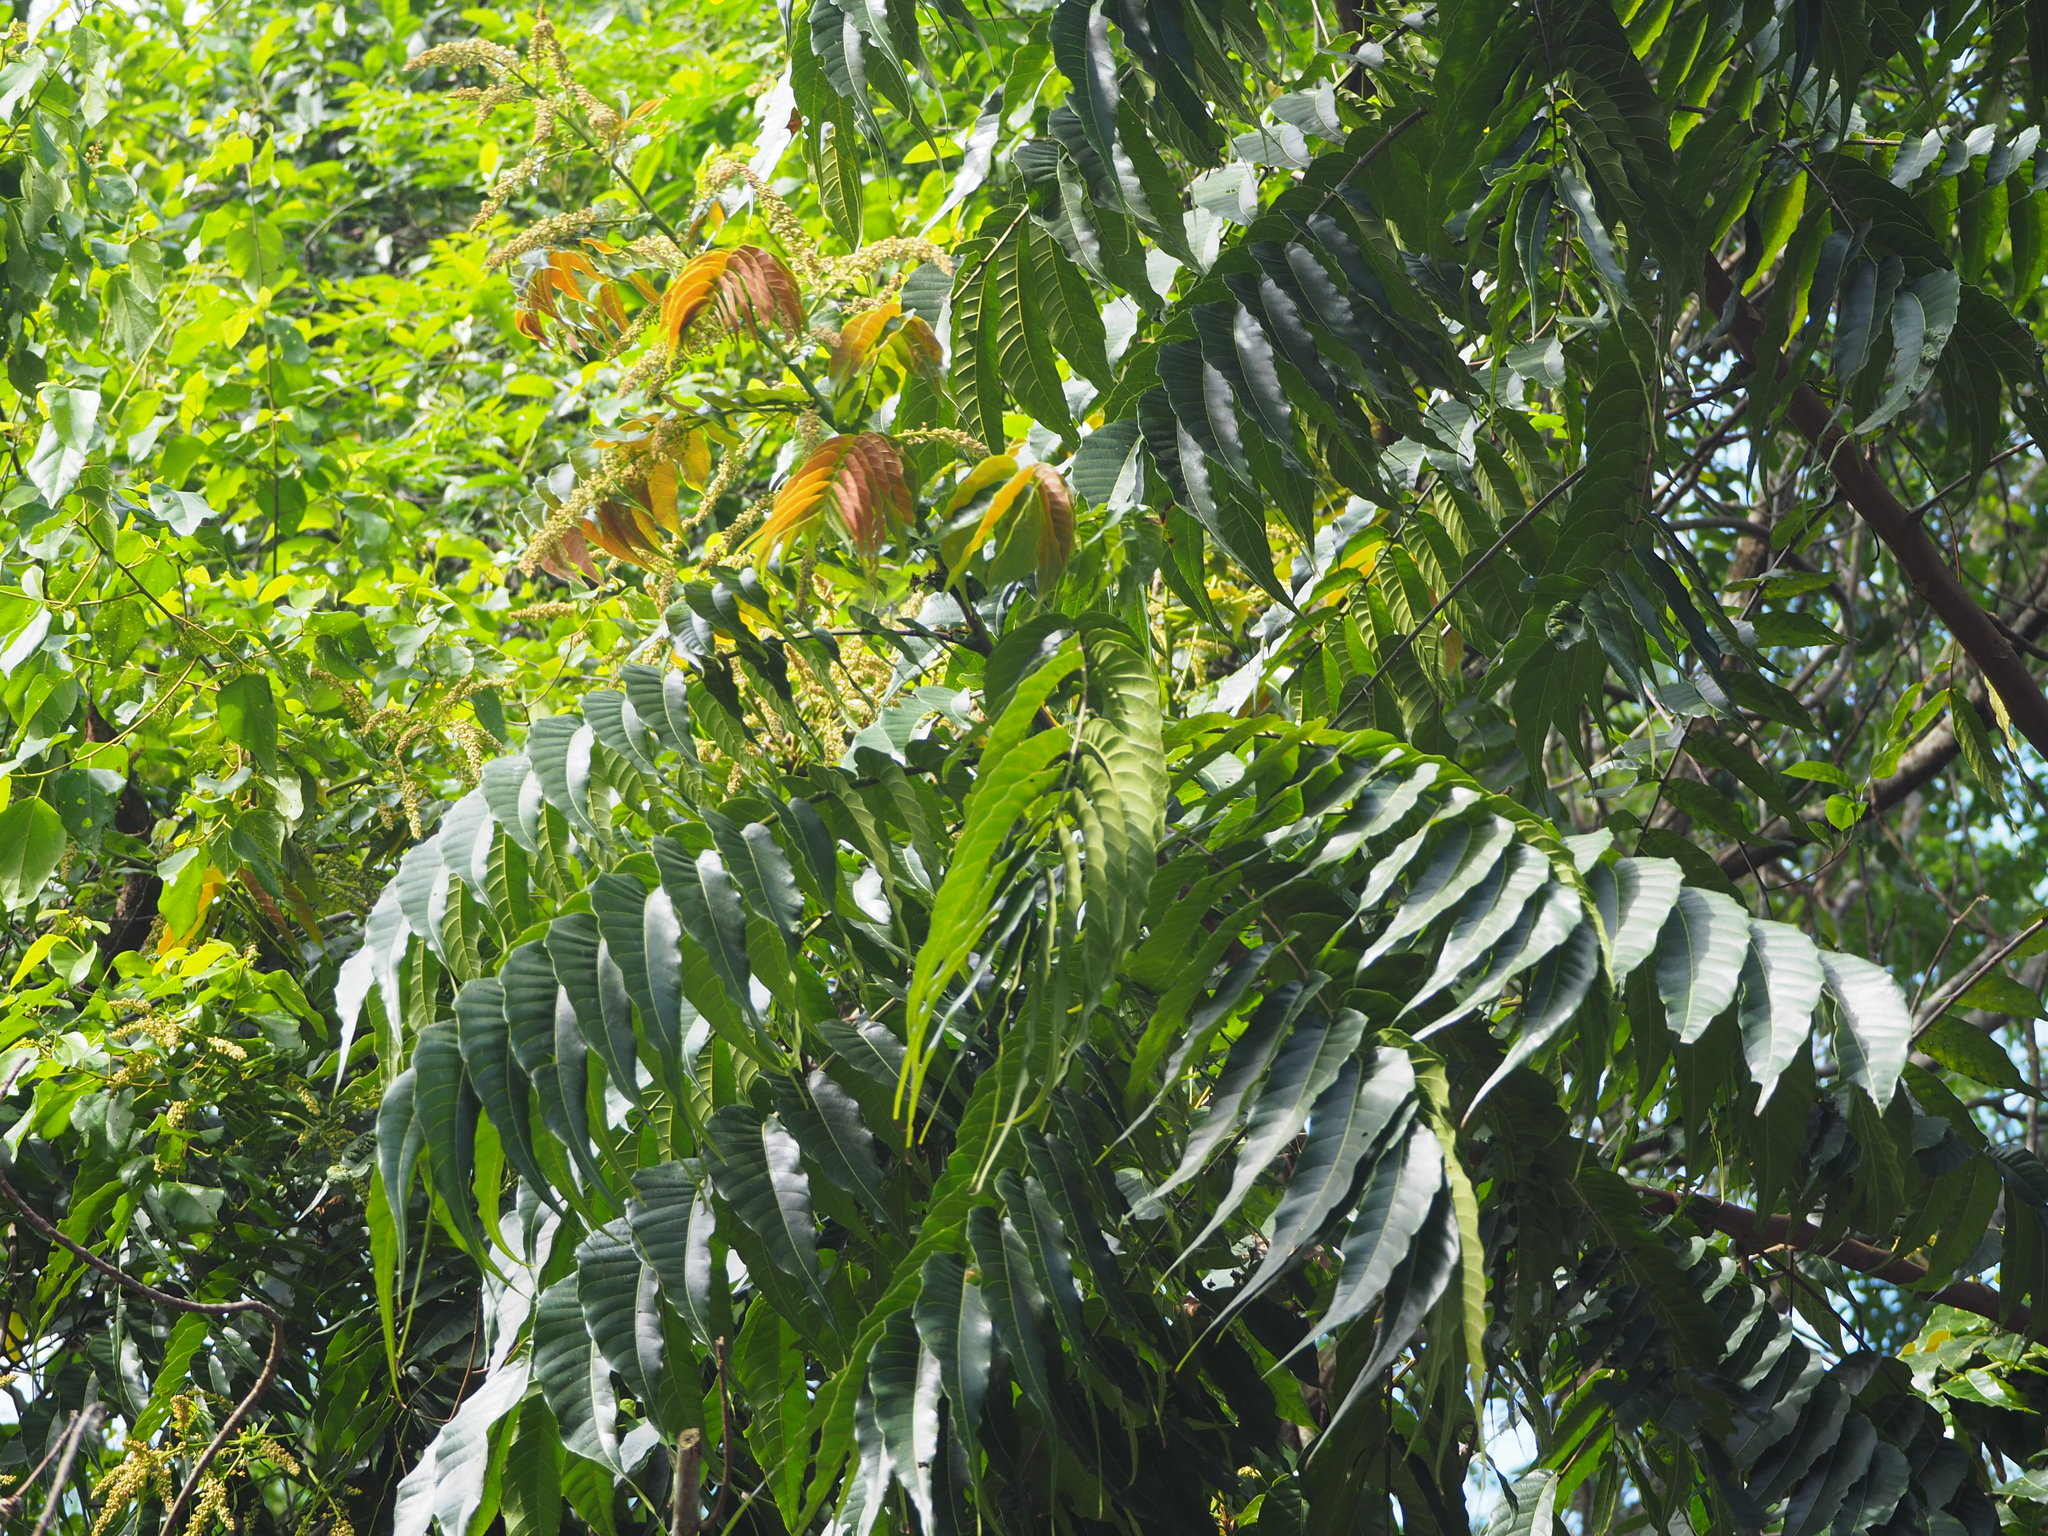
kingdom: Plantae
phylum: Tracheophyta
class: Magnoliopsida
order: Sapindales
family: Sapindaceae
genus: Pometia
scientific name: Pometia pinnata
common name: Oceanic lychee
